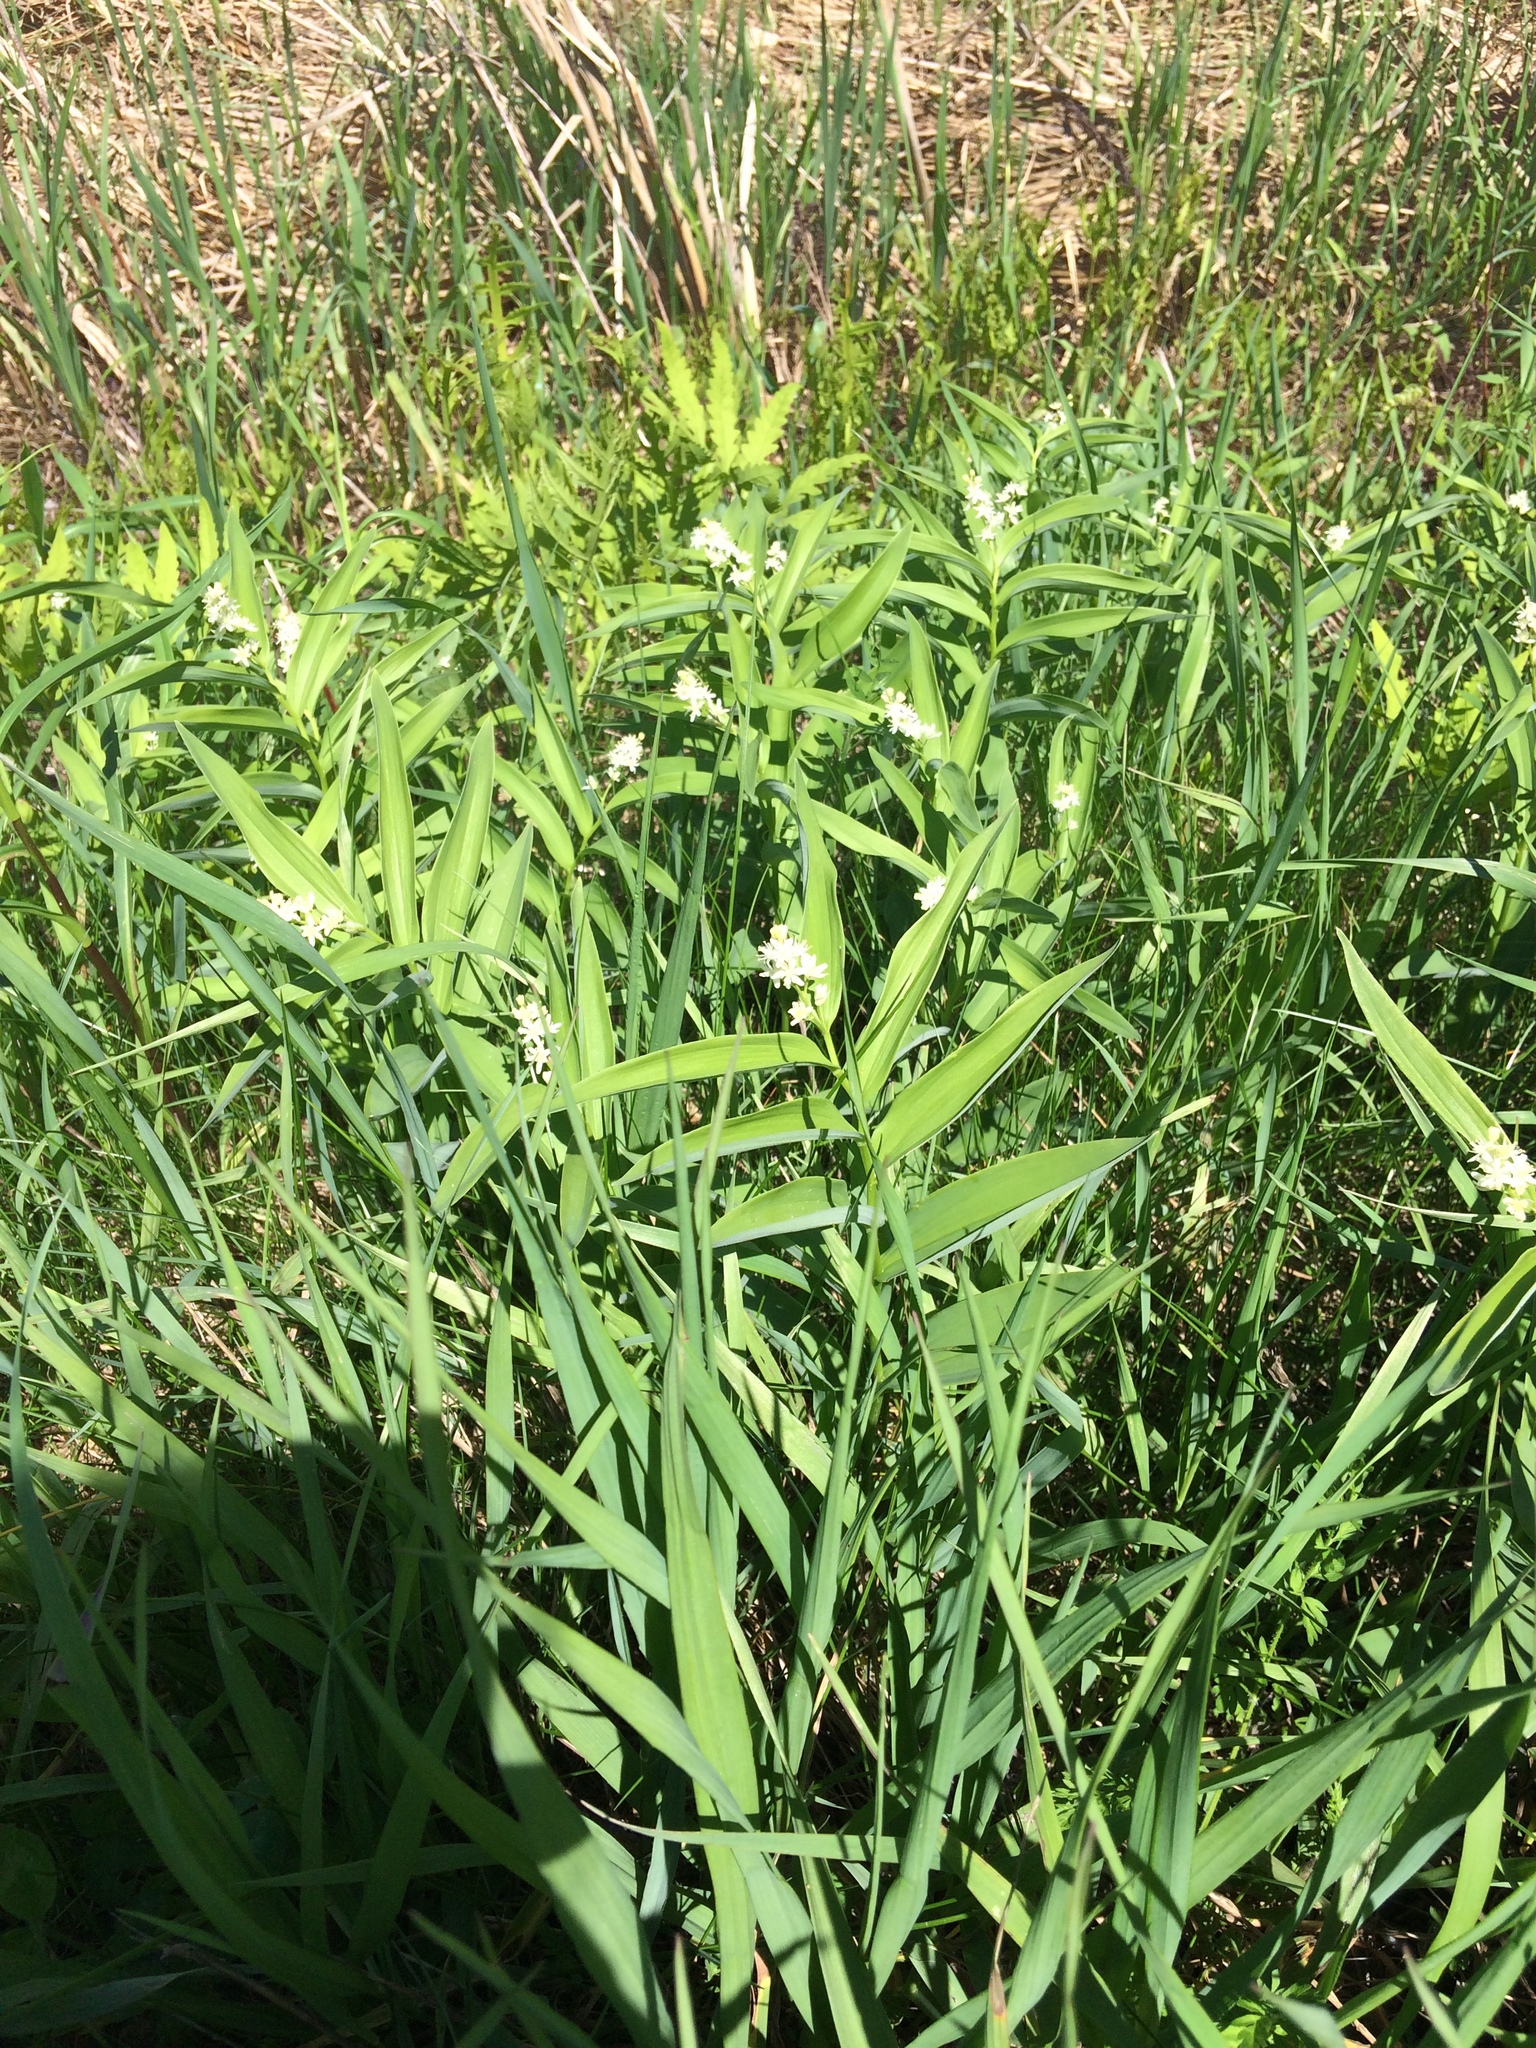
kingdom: Plantae
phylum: Tracheophyta
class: Liliopsida
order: Asparagales
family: Asparagaceae
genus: Maianthemum
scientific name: Maianthemum stellatum
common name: Little false solomon's seal
